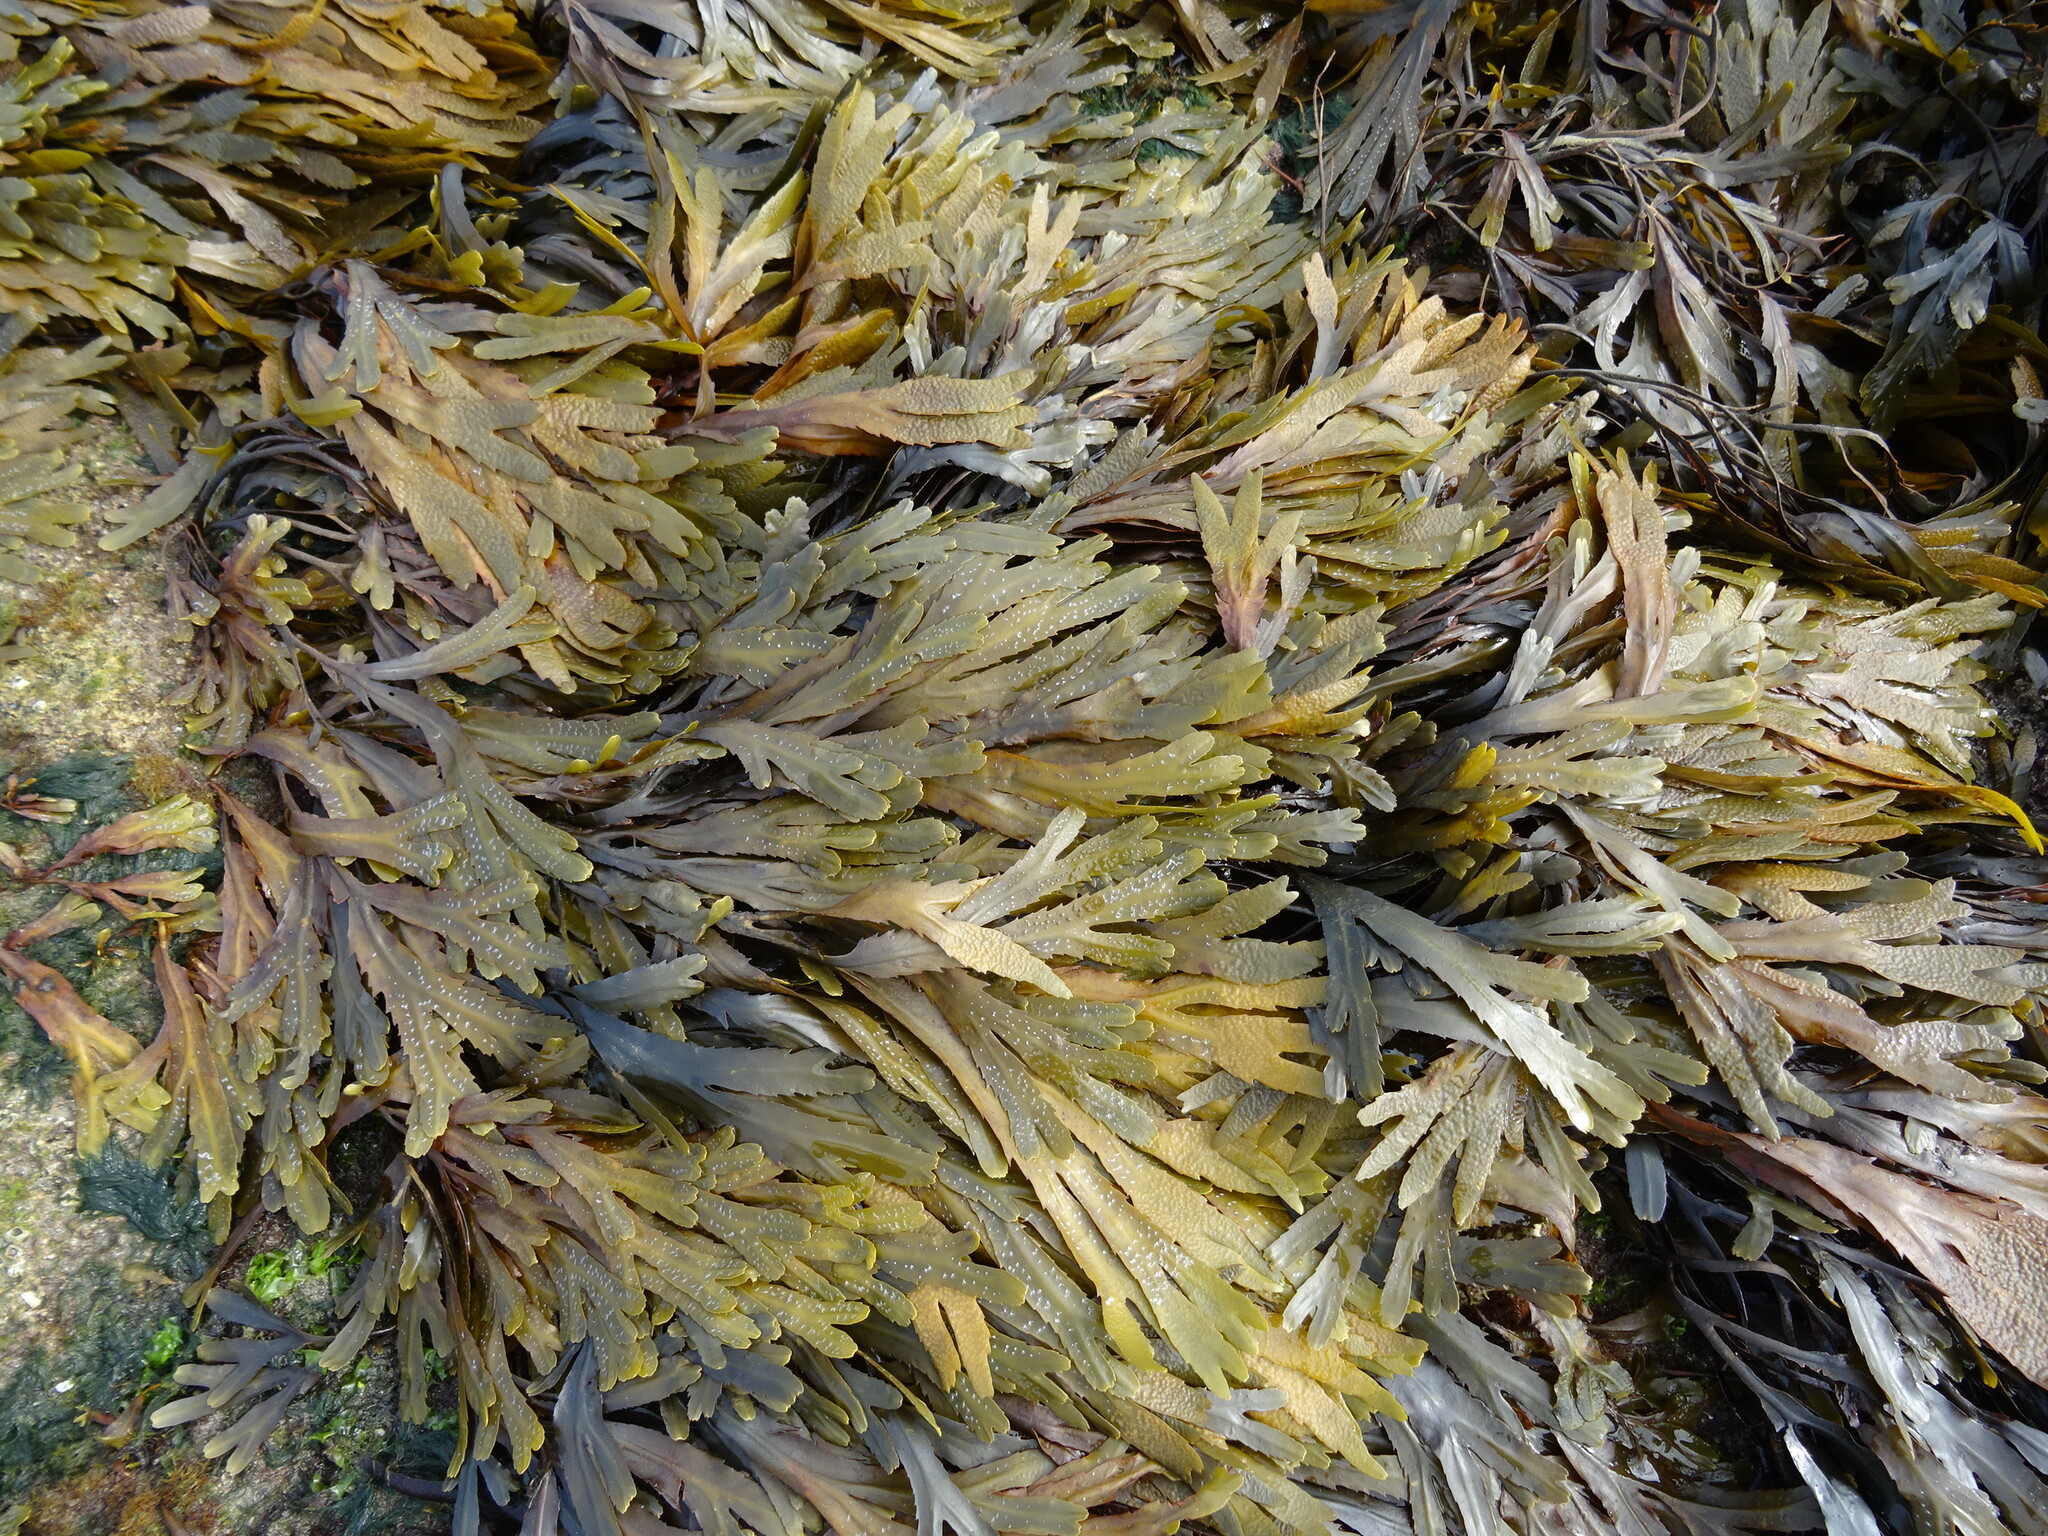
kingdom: Chromista
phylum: Ochrophyta
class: Phaeophyceae
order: Fucales
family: Fucaceae
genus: Fucus
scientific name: Fucus serratus
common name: Toothed wrack
